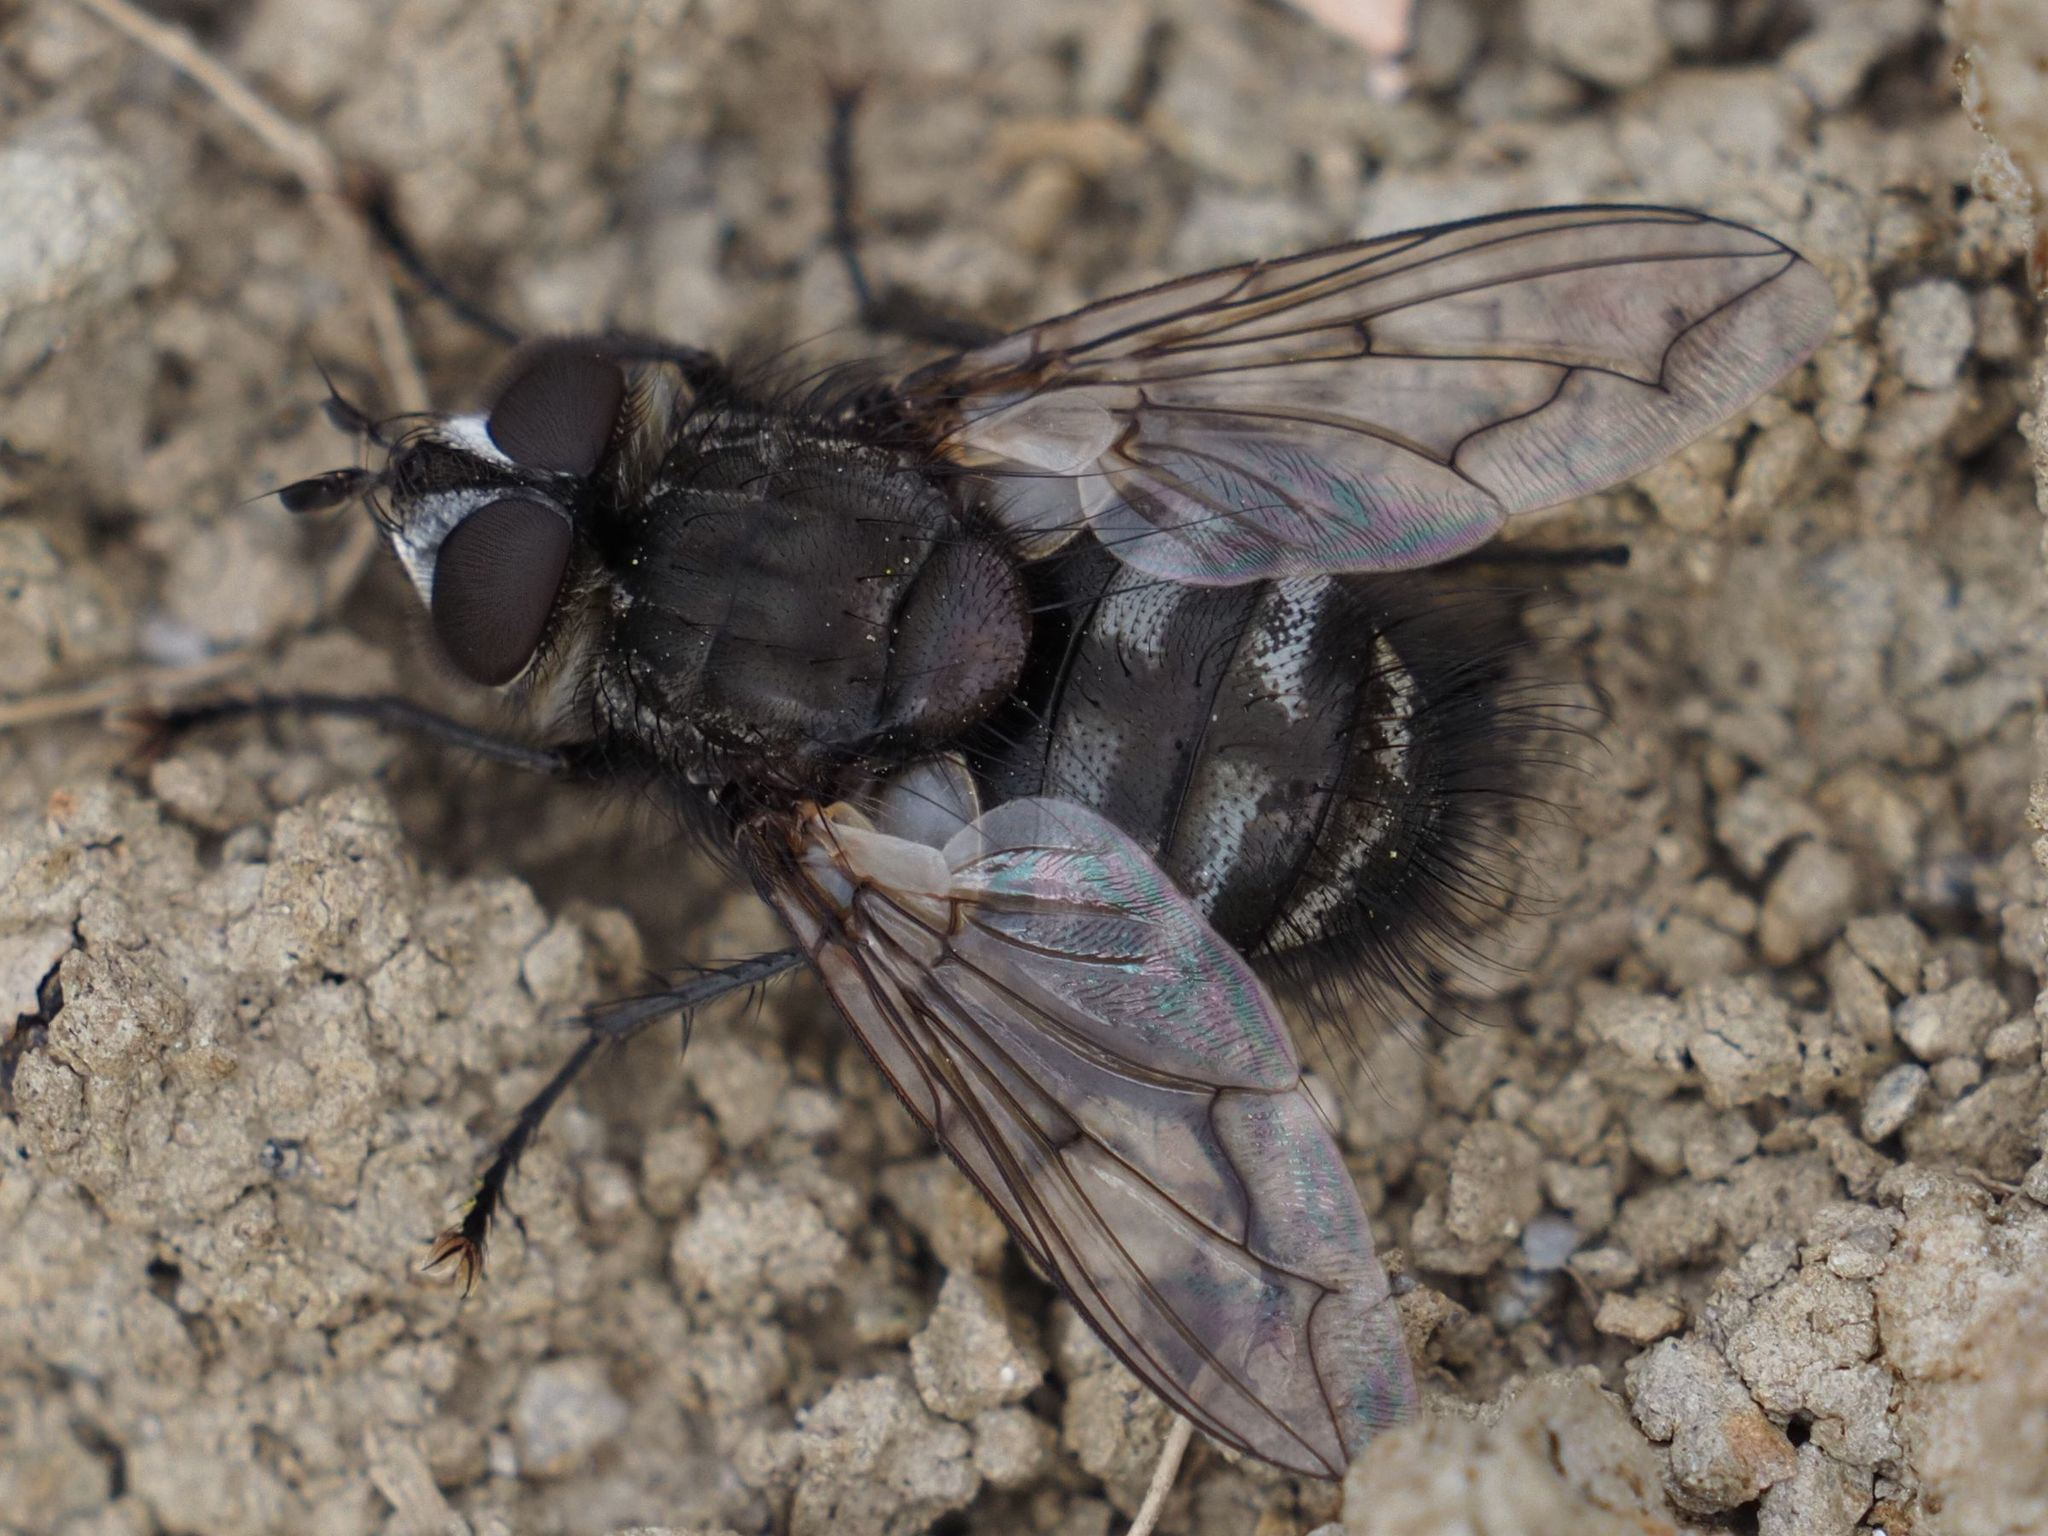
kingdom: Animalia
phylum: Arthropoda
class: Insecta
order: Diptera
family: Tachinidae
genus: Panzeria
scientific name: Panzeria puparum
